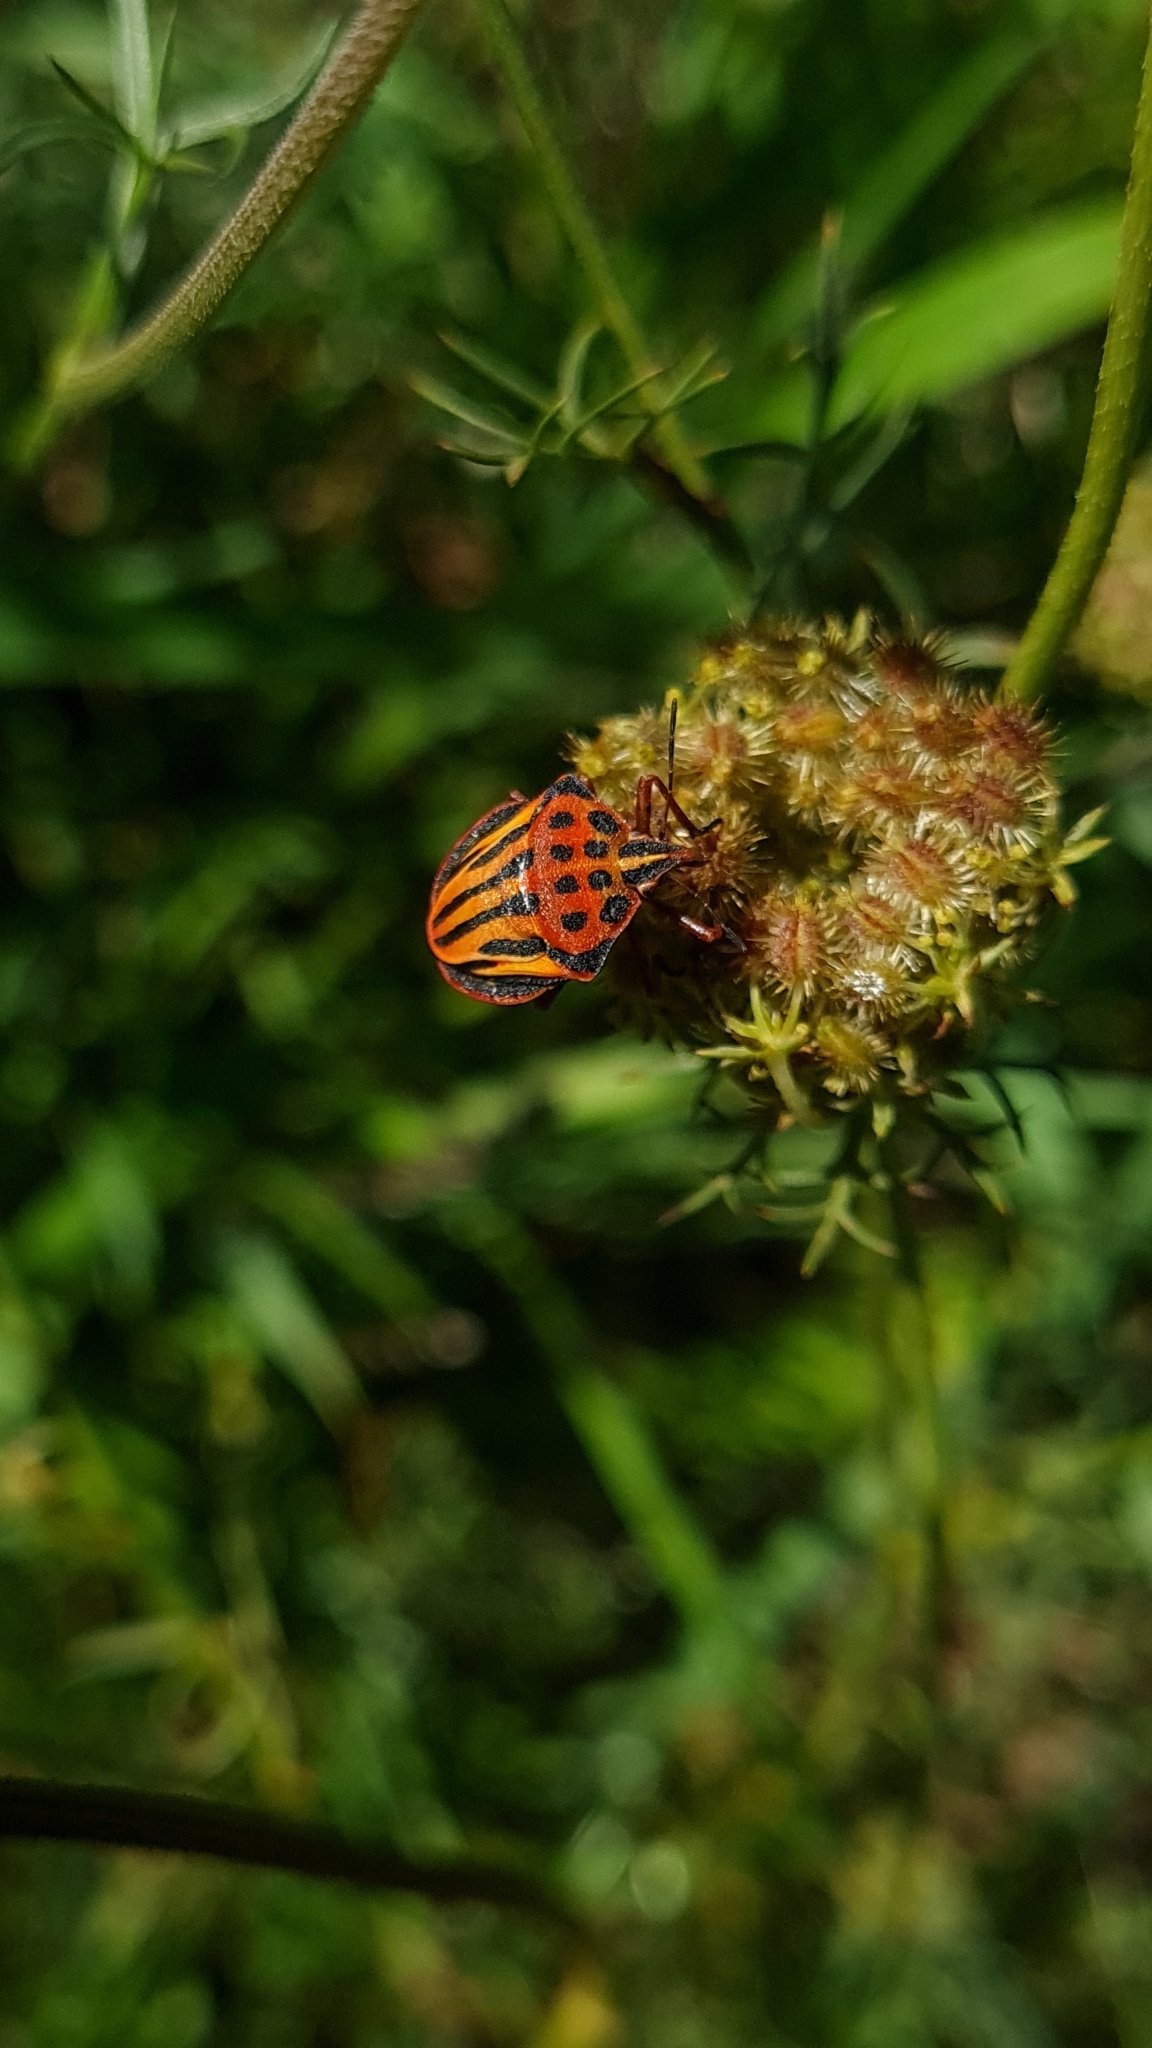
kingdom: Animalia
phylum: Arthropoda
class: Insecta
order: Hemiptera
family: Pentatomidae
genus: Graphosoma
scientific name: Graphosoma semipunctatum
